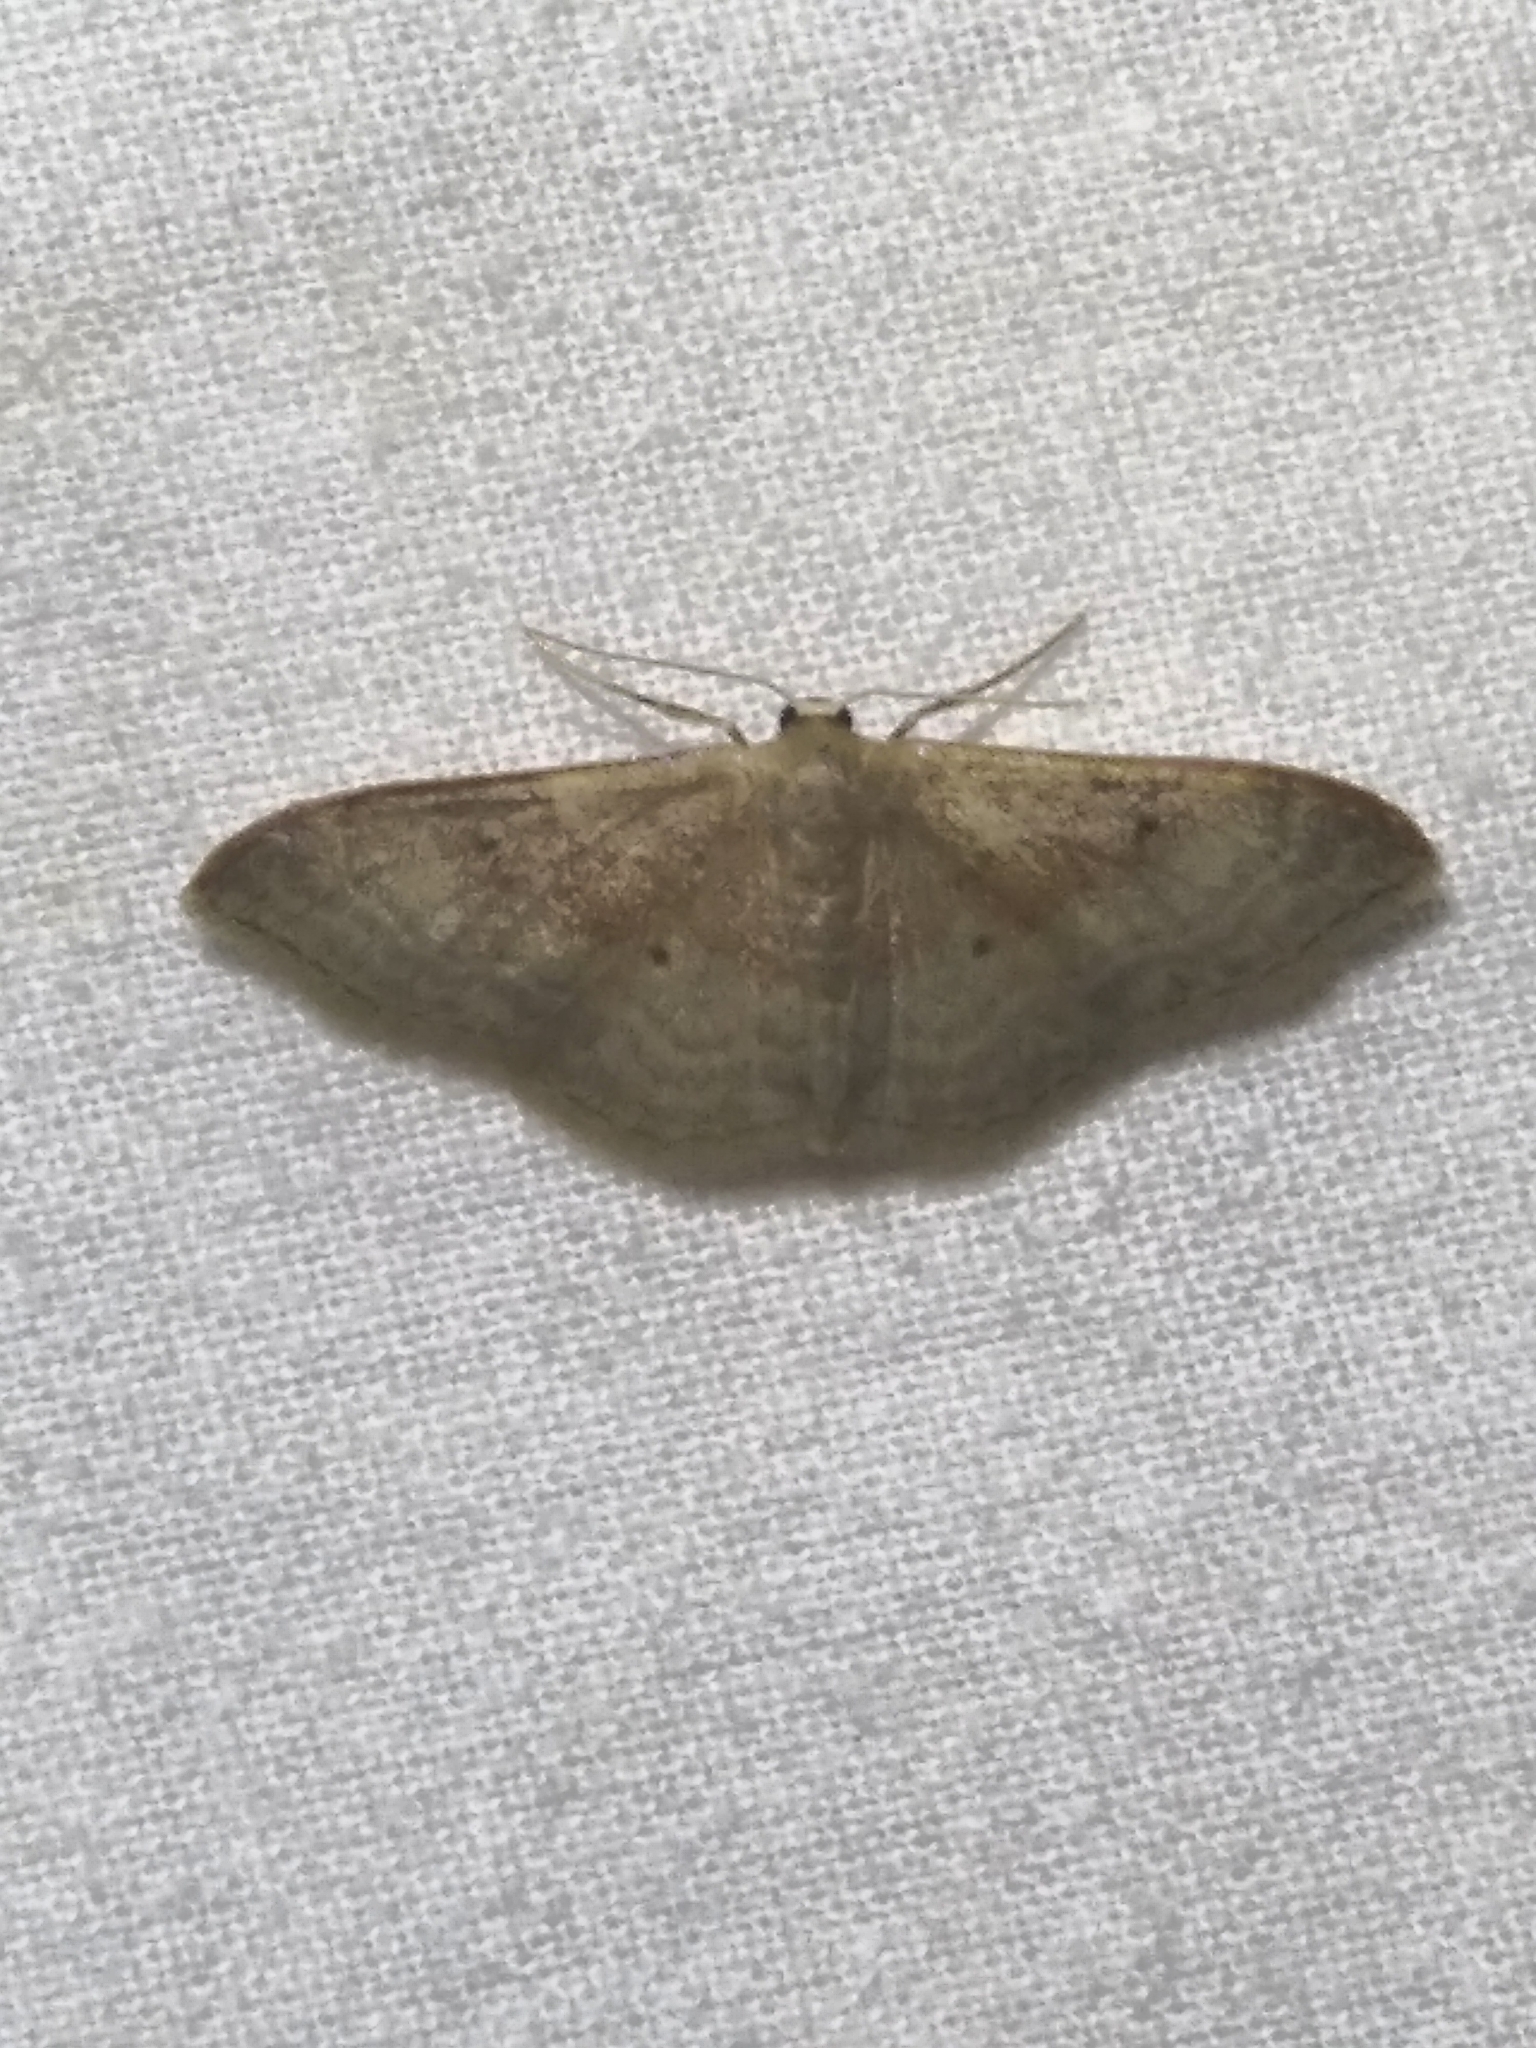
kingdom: Animalia
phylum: Arthropoda
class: Insecta
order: Lepidoptera
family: Geometridae
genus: Idaea
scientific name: Idaea degeneraria
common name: Portland ribbon wave
